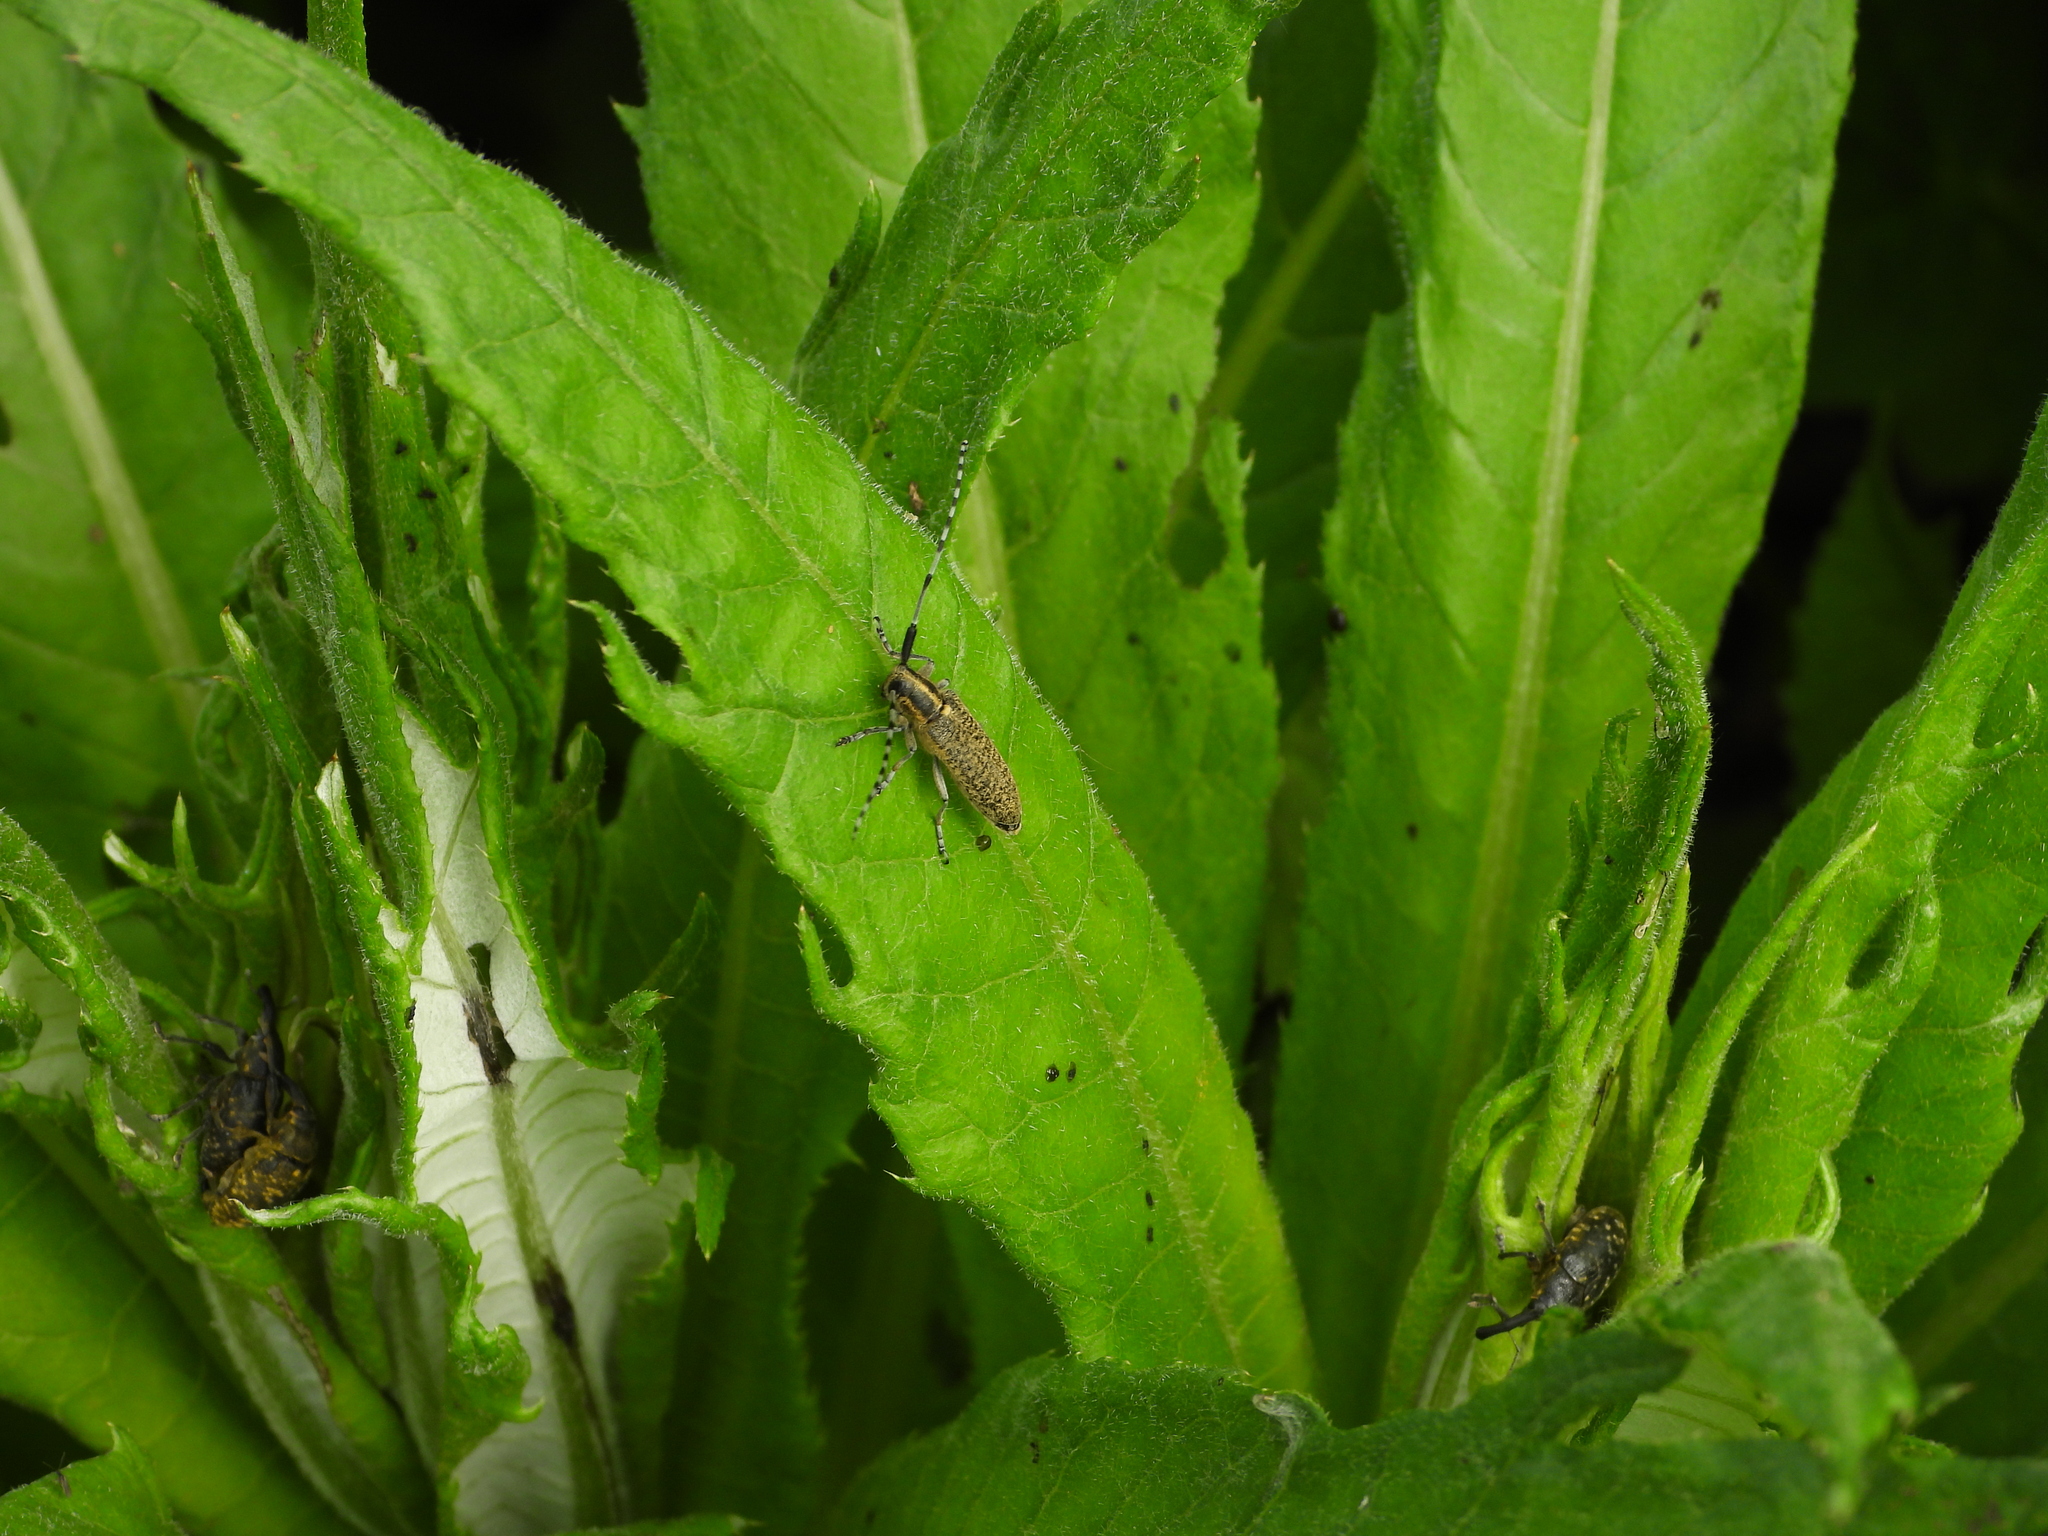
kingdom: Animalia
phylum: Arthropoda
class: Insecta
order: Coleoptera
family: Cerambycidae
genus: Agapanthia
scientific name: Agapanthia villosoviridescens
